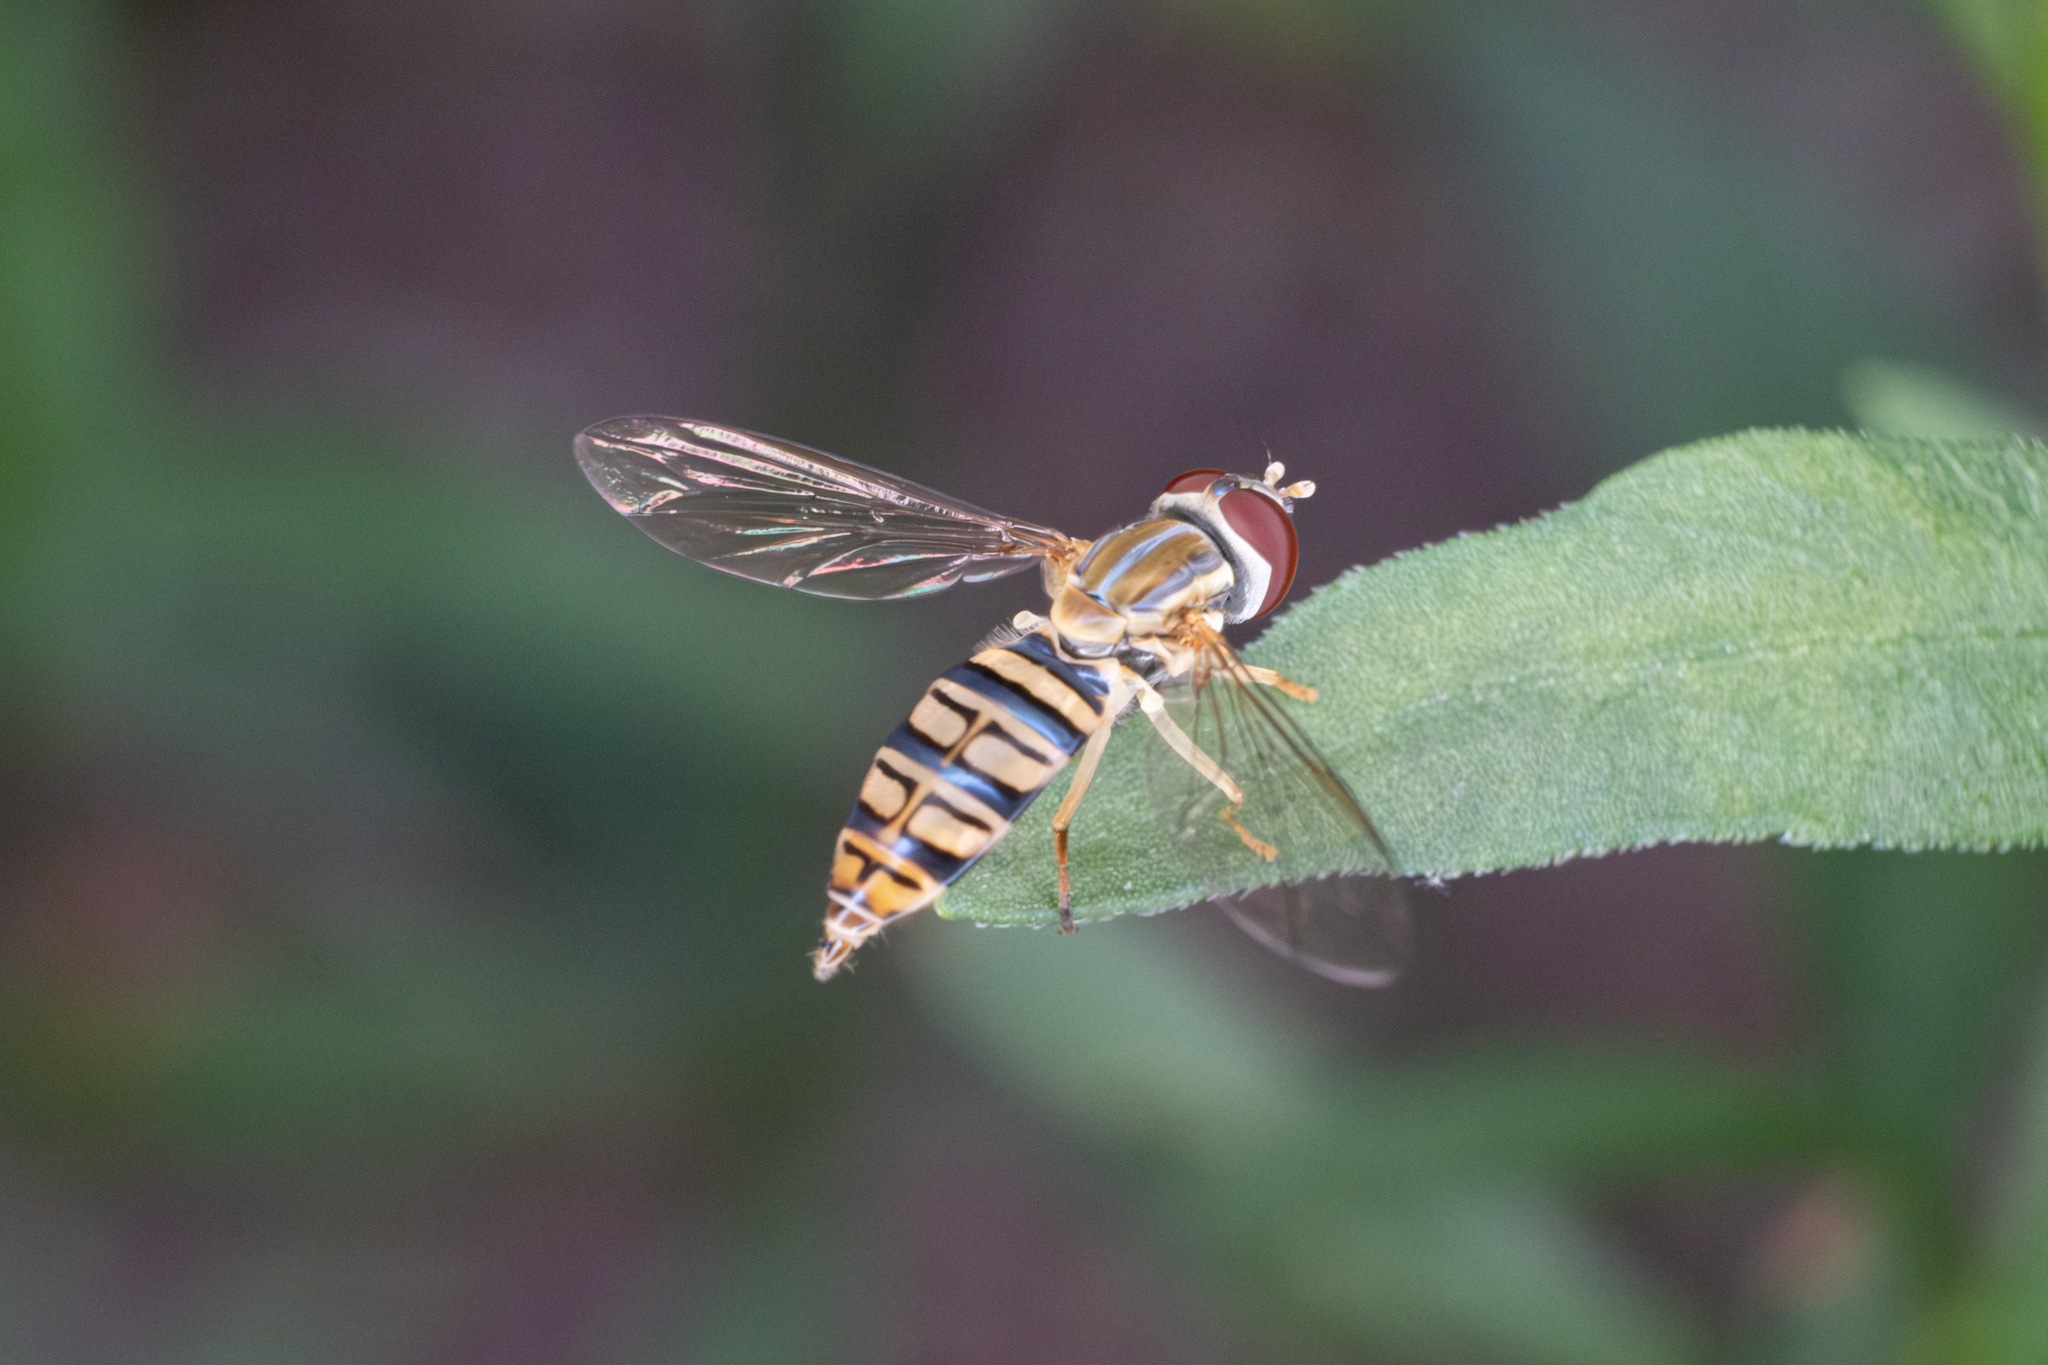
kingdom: Animalia
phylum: Arthropoda
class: Insecta
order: Diptera
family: Syrphidae
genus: Toxomerus
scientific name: Toxomerus politus
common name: Maize calligrapher
